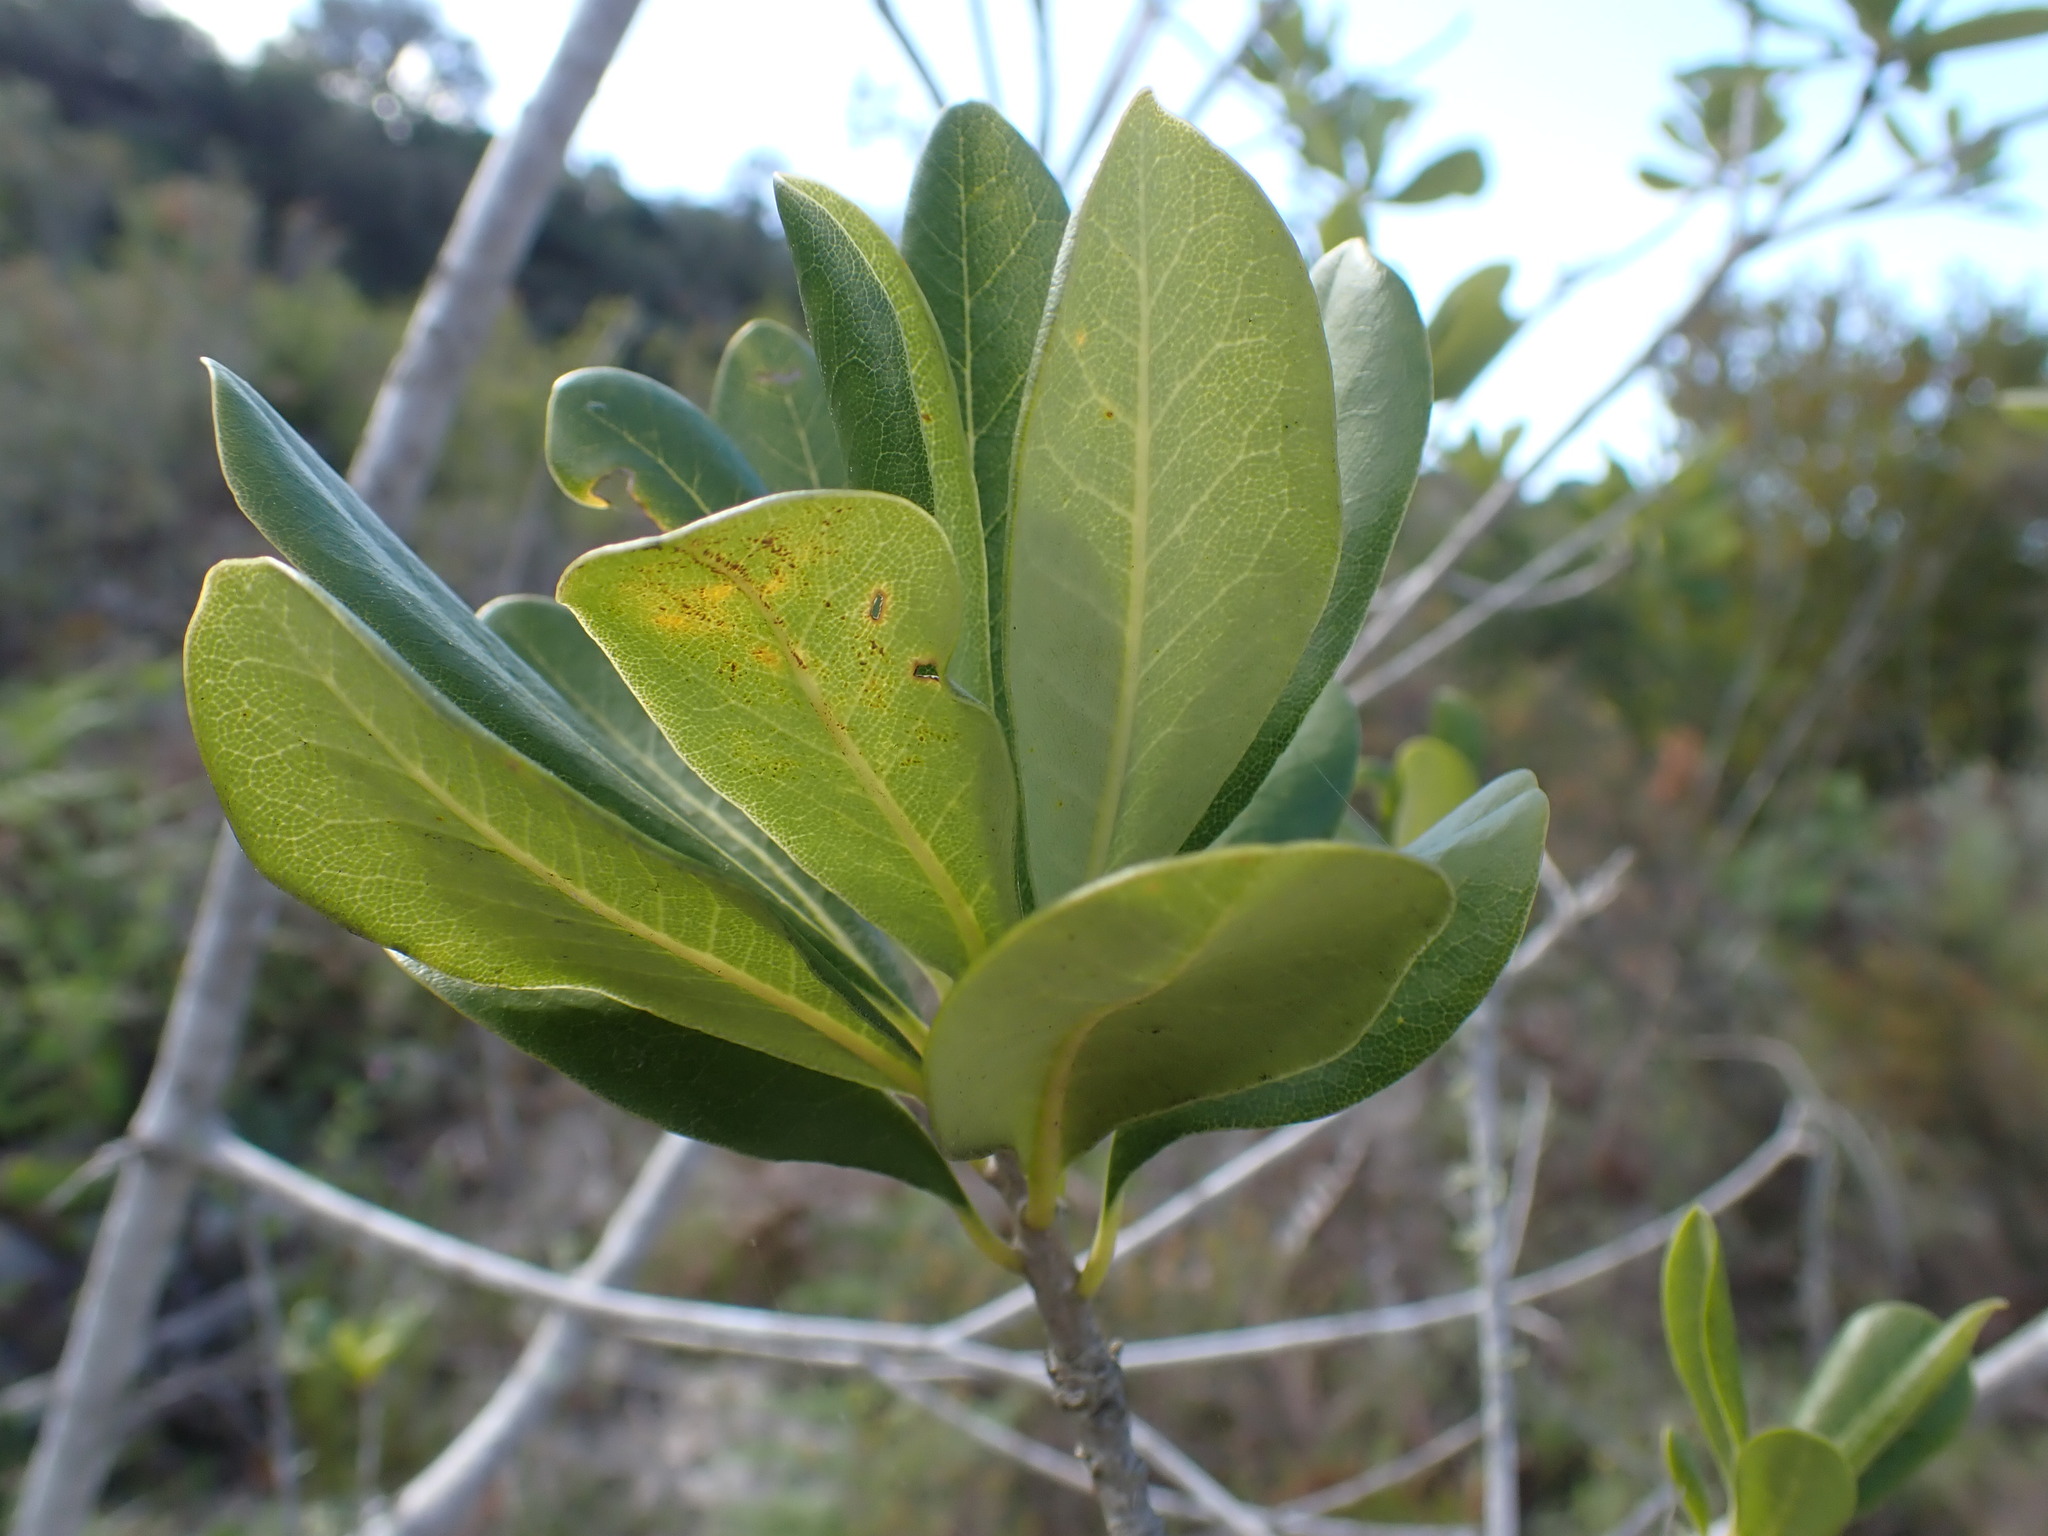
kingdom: Plantae
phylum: Tracheophyta
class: Magnoliopsida
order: Apiales
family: Pittosporaceae
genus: Pittosporum
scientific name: Pittosporum viridiflorum
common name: Cape cheesewood
